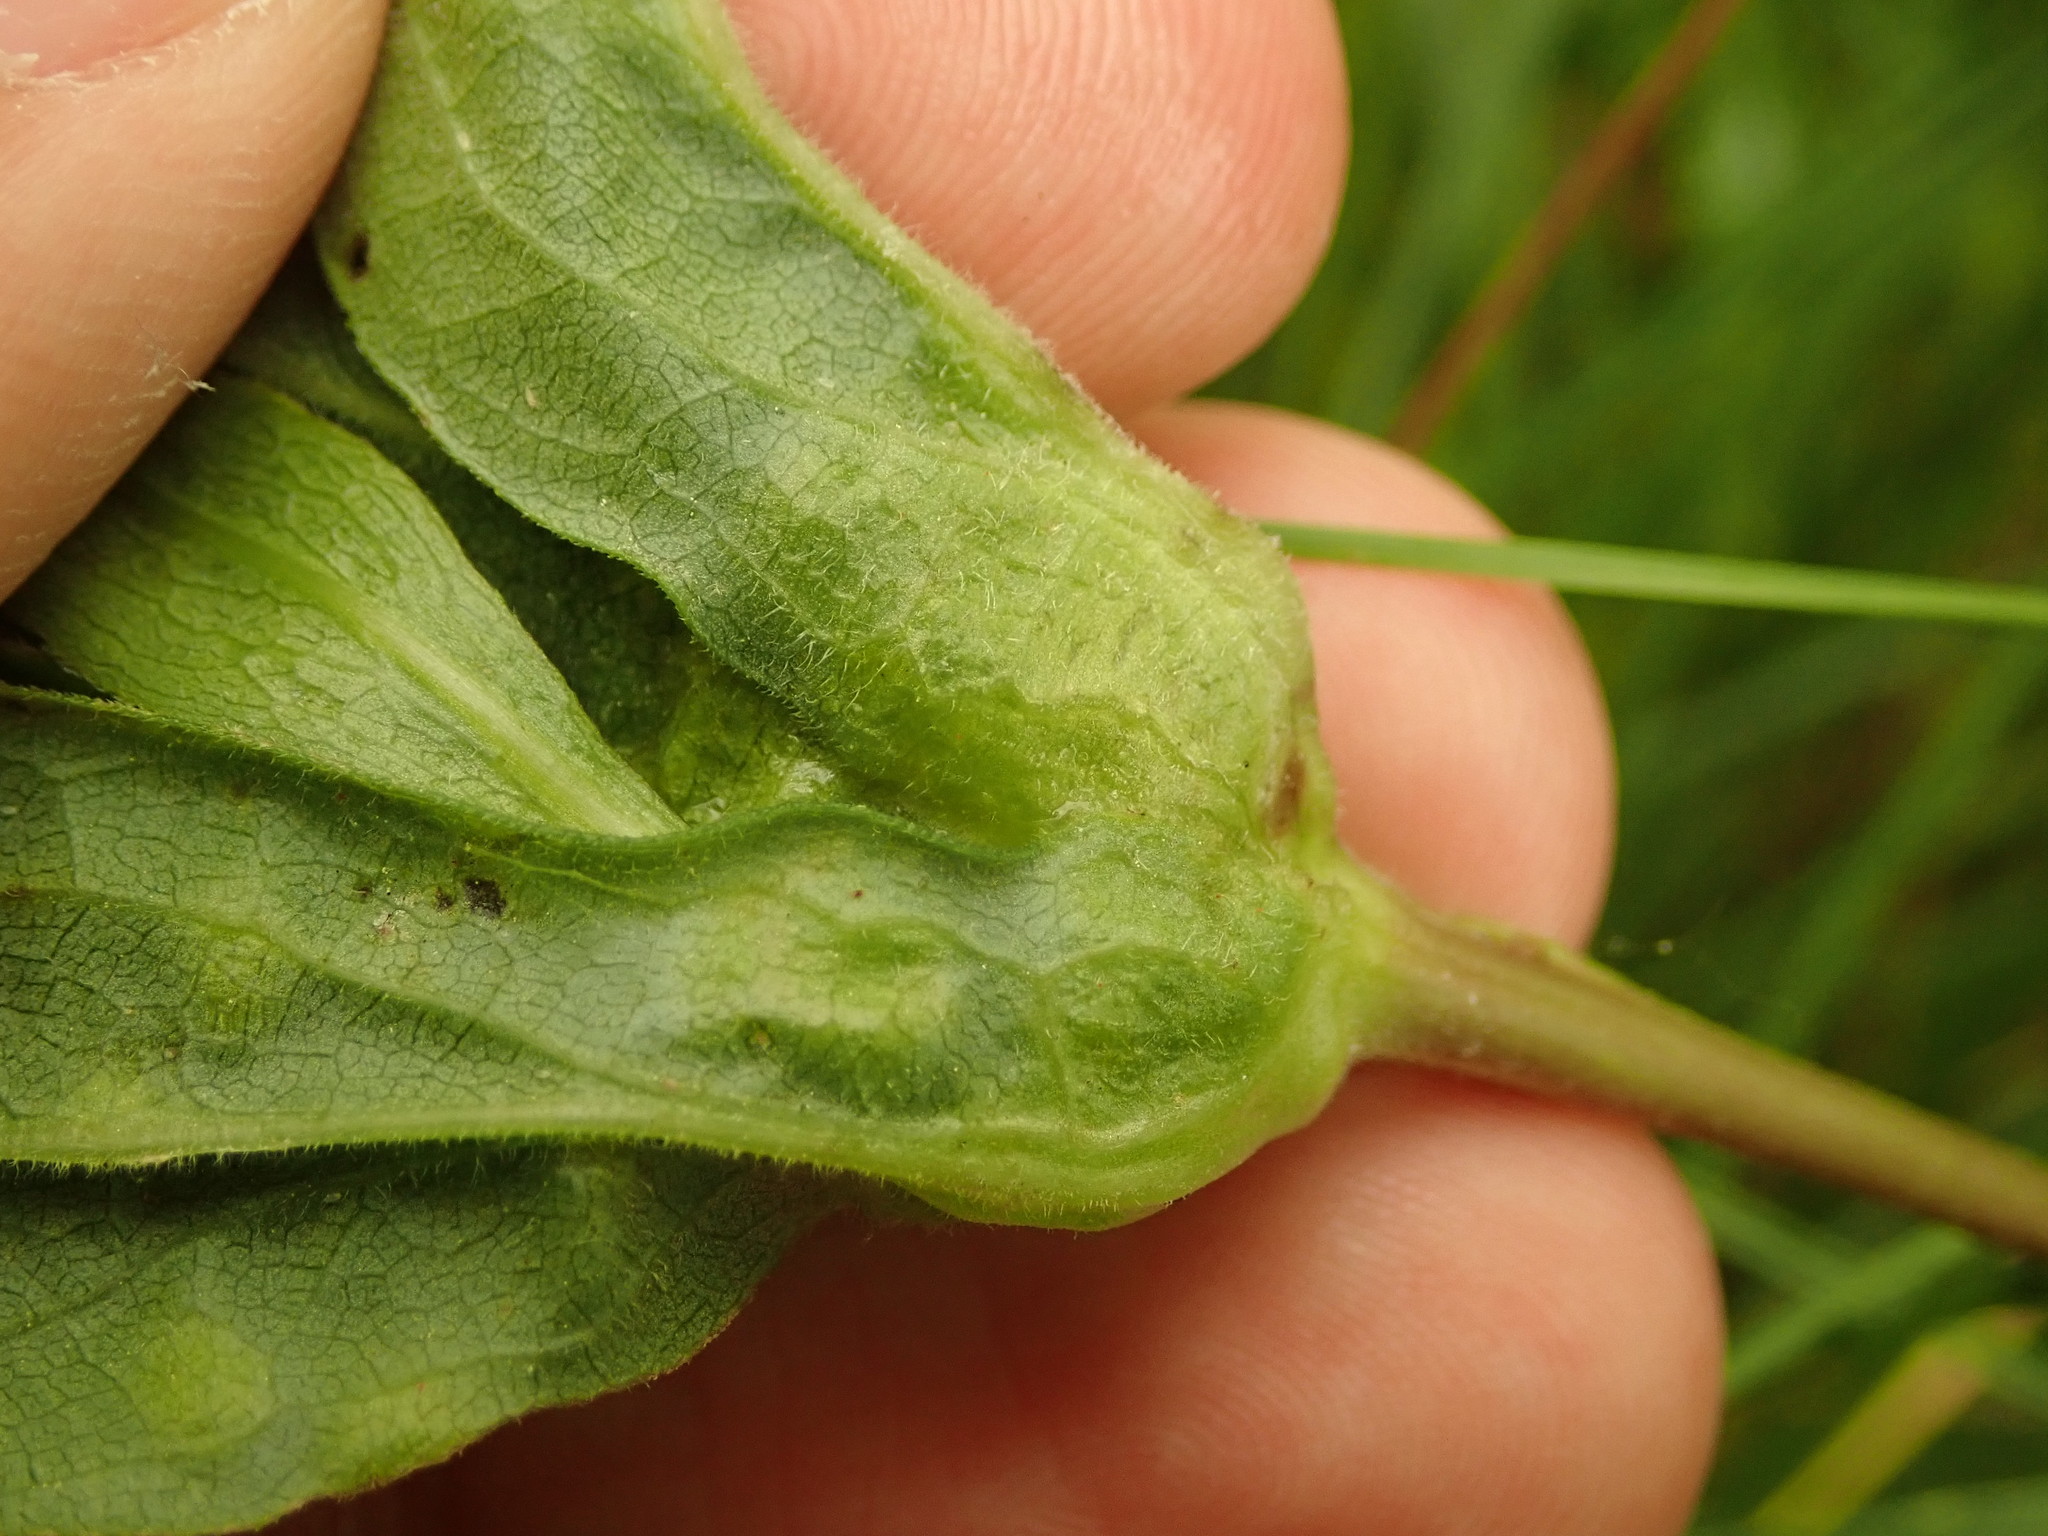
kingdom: Animalia
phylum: Arthropoda
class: Insecta
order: Diptera
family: Cecidomyiidae
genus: Dasineura
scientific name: Dasineura folliculi
